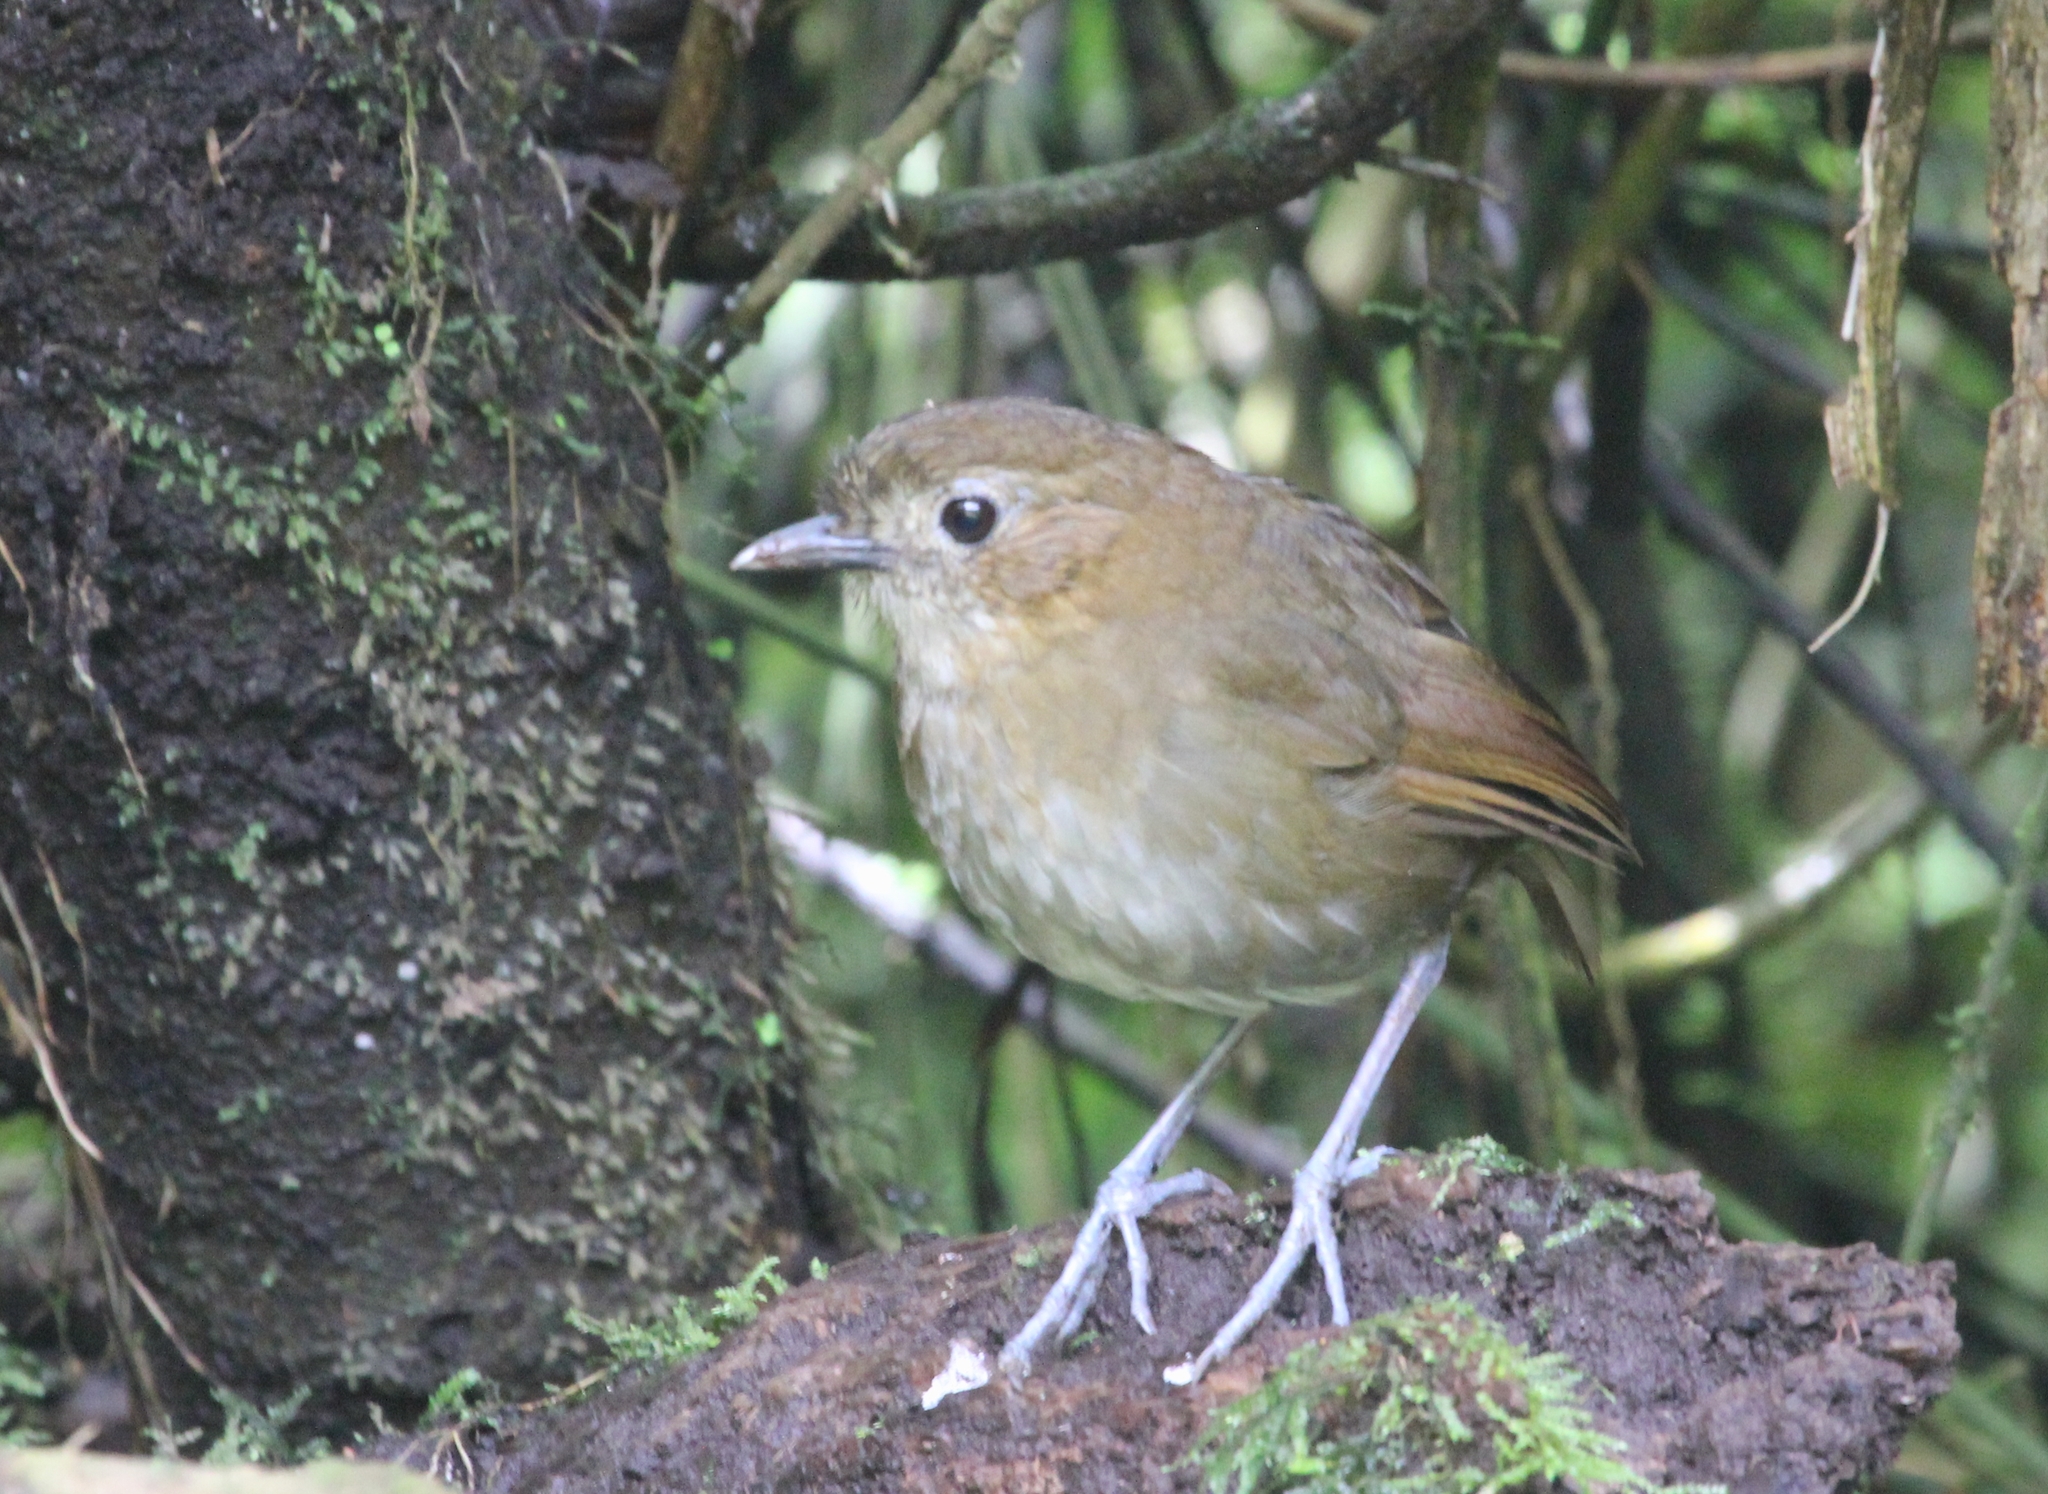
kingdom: Animalia
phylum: Chordata
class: Aves
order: Passeriformes
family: Grallariidae
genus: Grallaria
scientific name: Grallaria milleri
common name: Brown-banded antpitta
